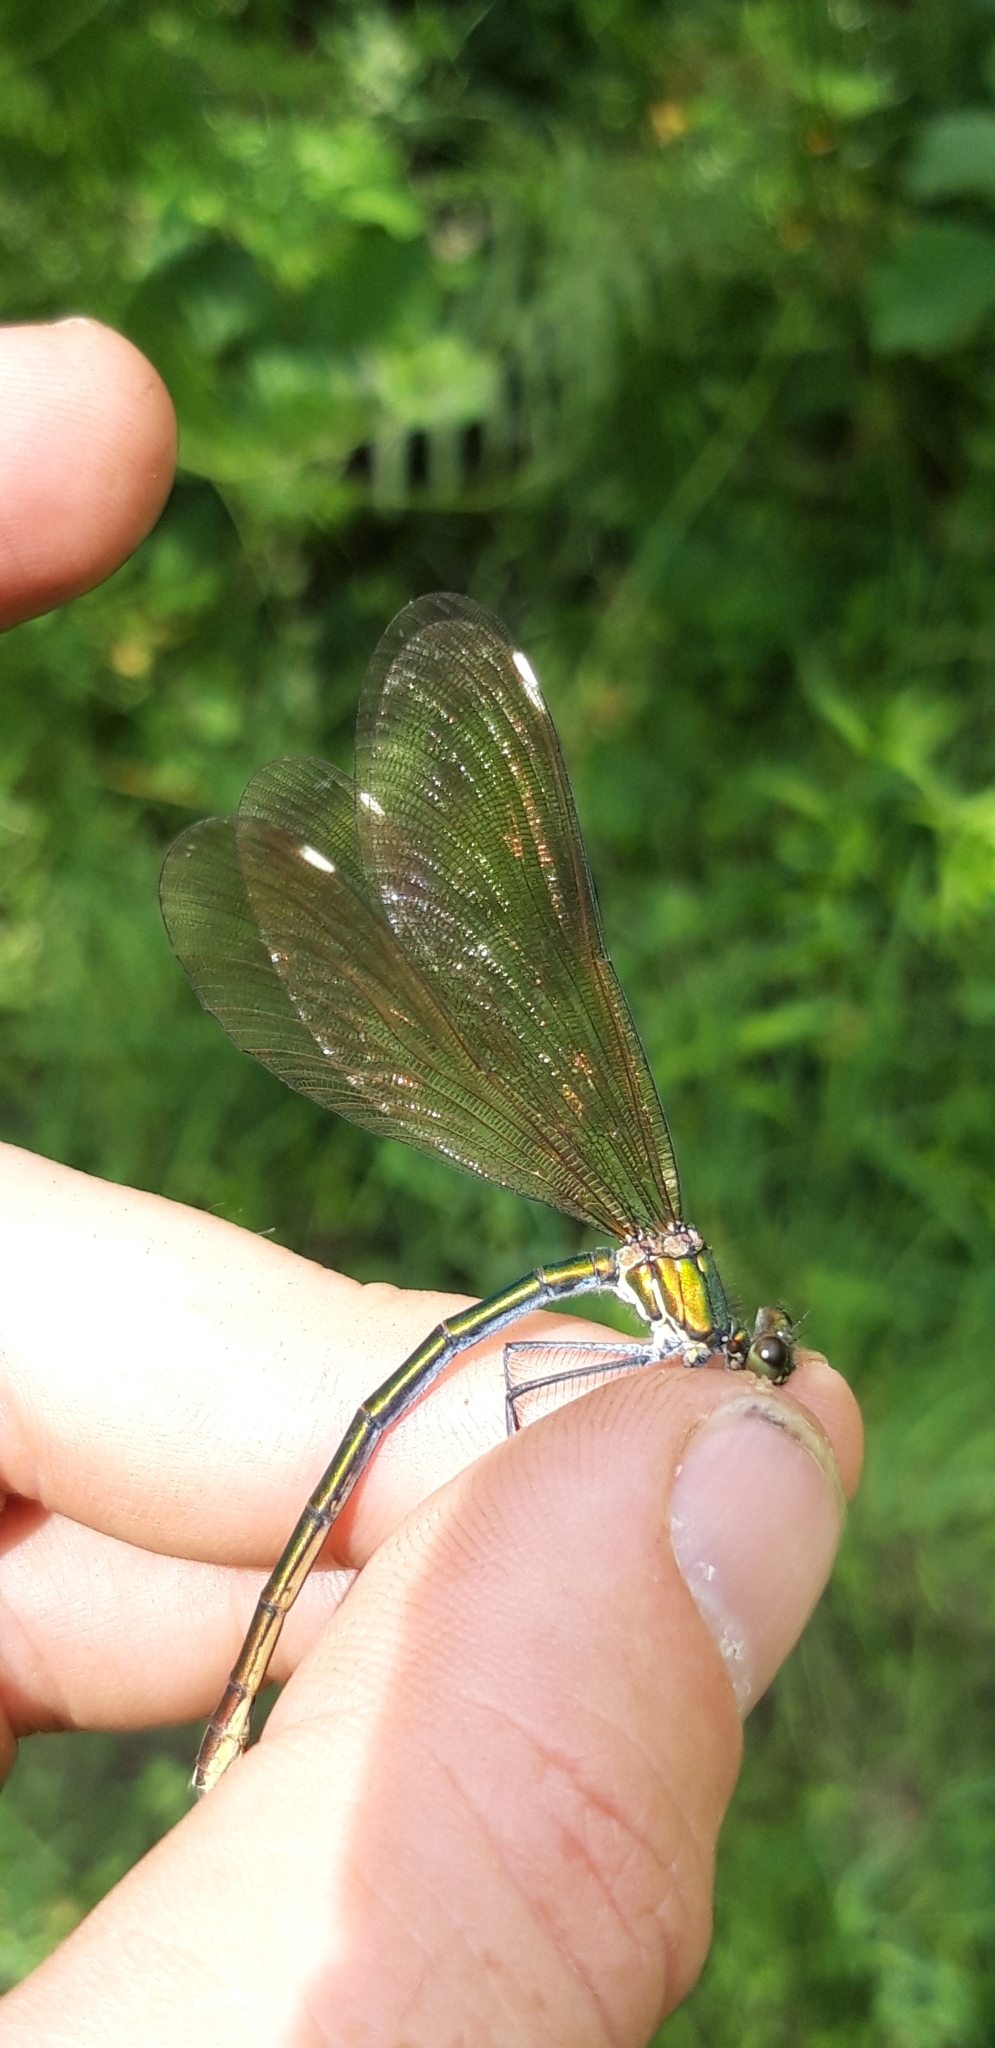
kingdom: Animalia
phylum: Arthropoda
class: Insecta
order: Odonata
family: Calopterygidae
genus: Calopteryx
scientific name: Calopteryx virgo
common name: Beautiful demoiselle
